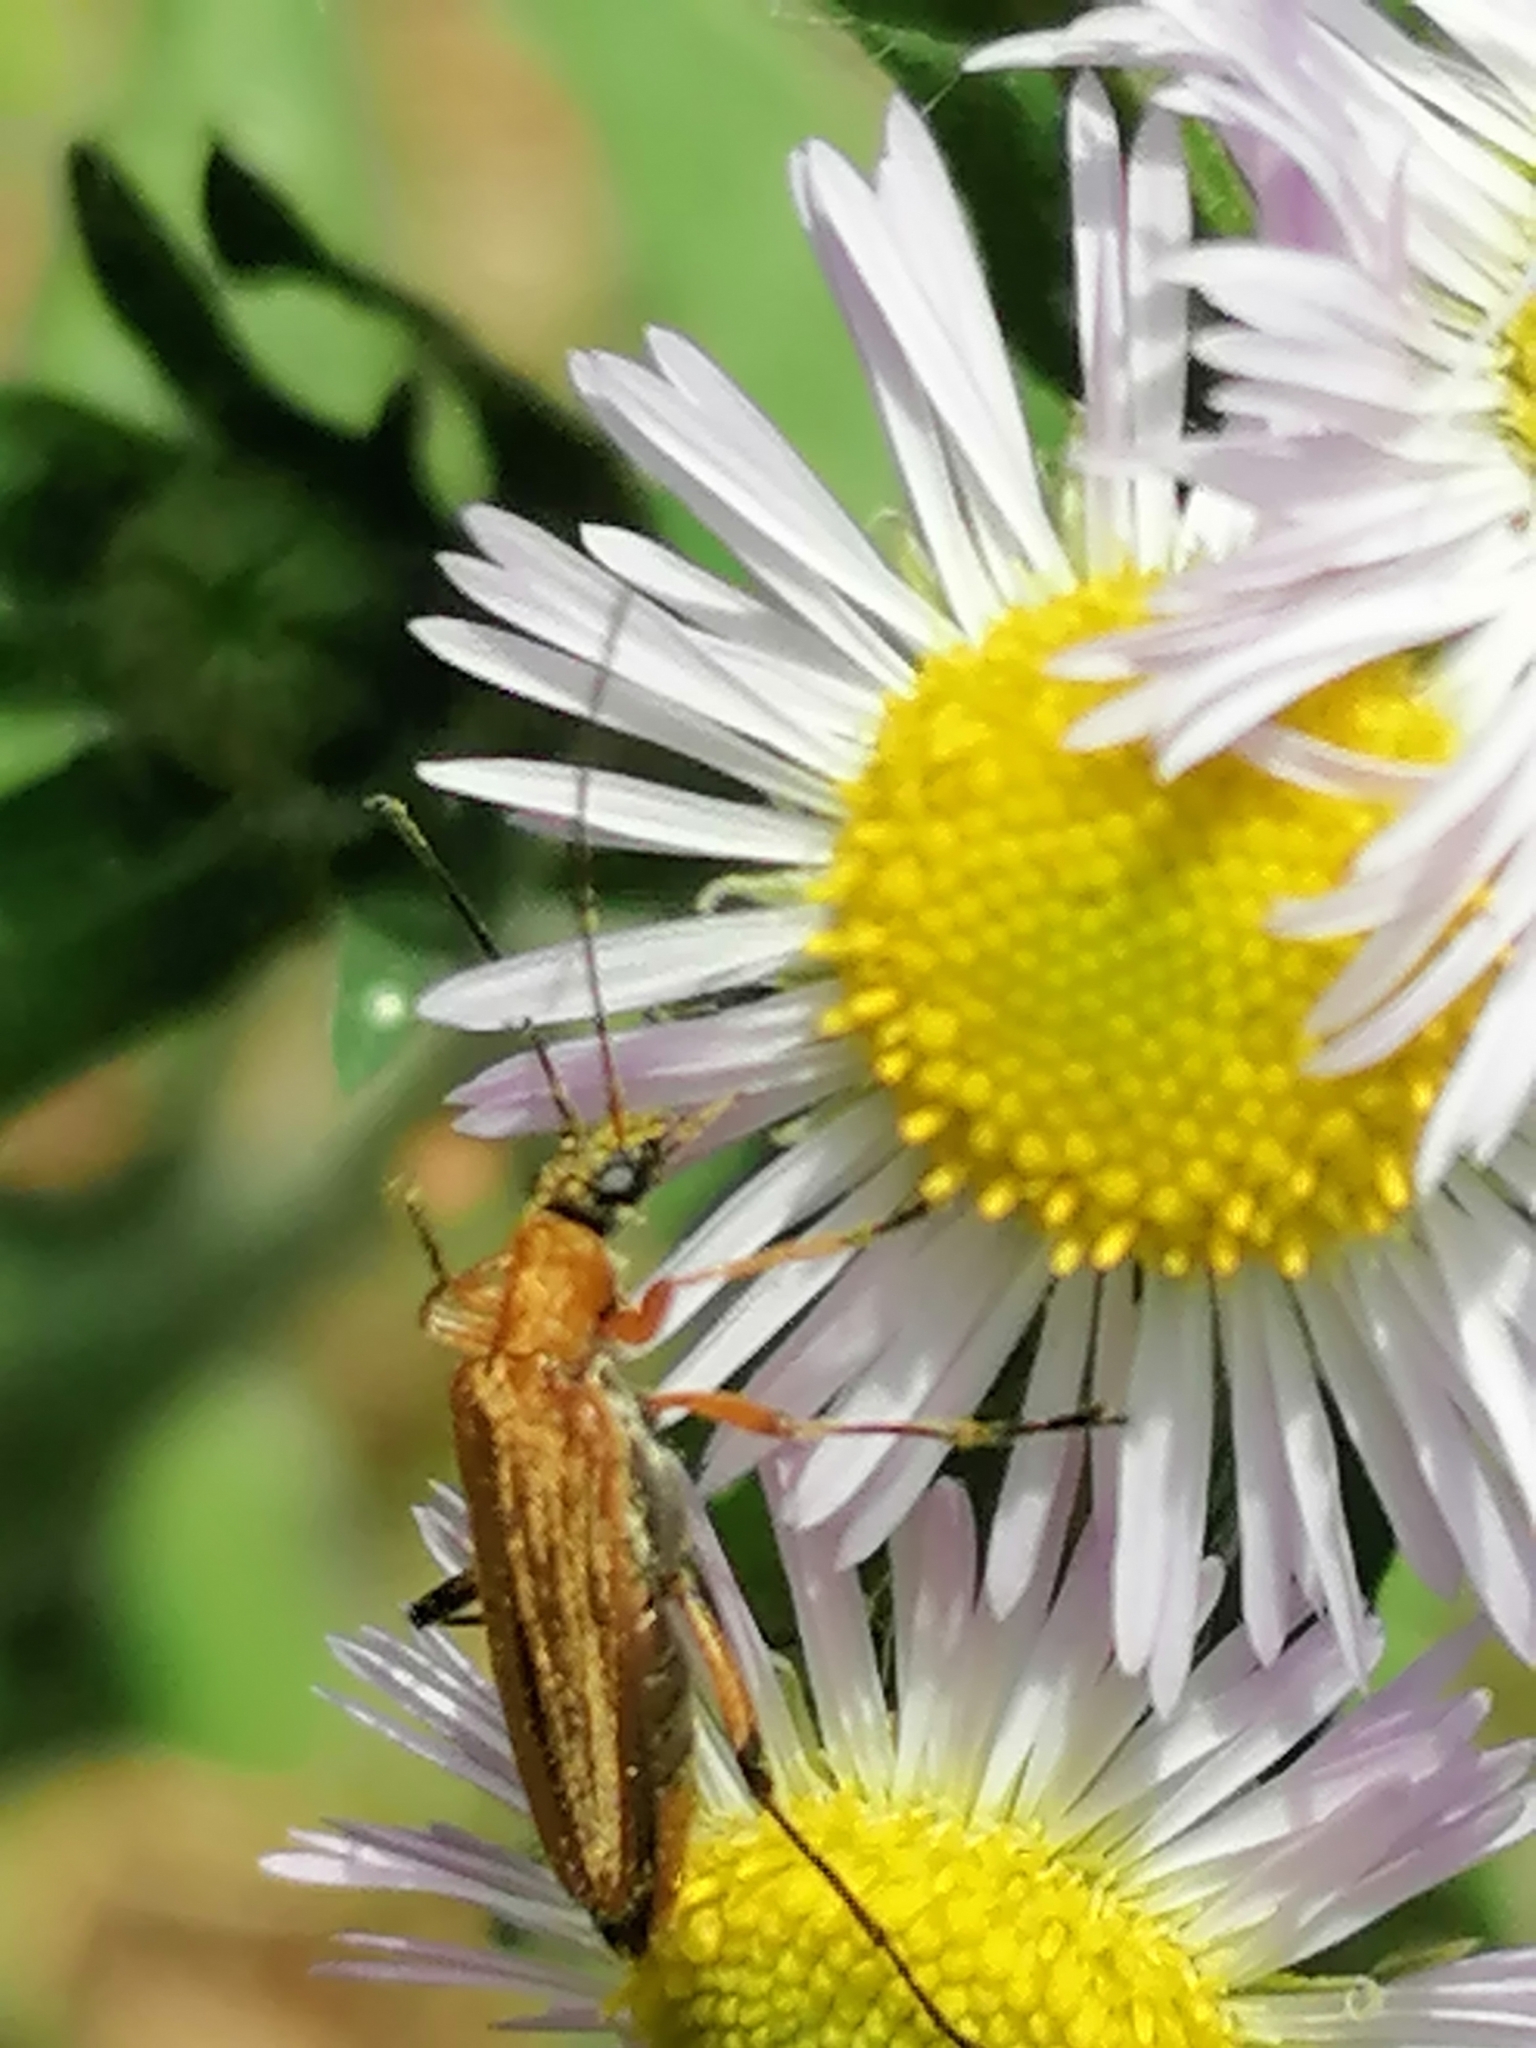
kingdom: Animalia
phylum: Arthropoda
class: Insecta
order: Coleoptera
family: Oedemeridae
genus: Oedemera
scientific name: Oedemera podagrariae
